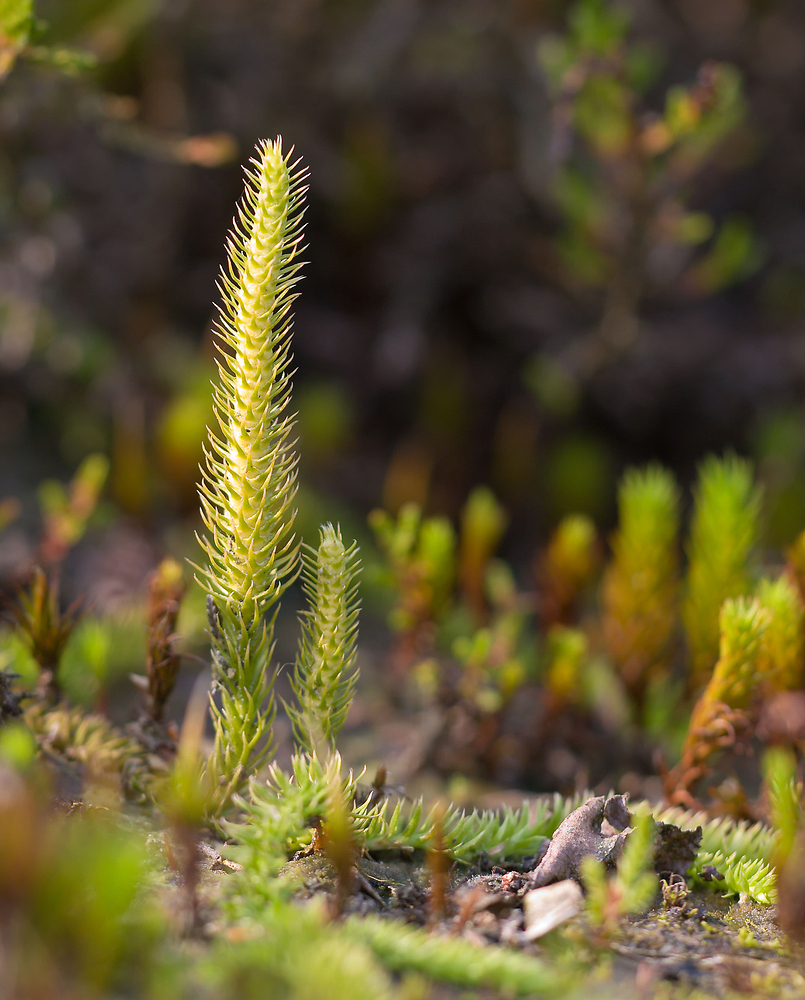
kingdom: Plantae
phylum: Tracheophyta
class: Lycopodiopsida
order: Lycopodiales
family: Lycopodiaceae
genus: Lycopodiella
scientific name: Lycopodiella inundata
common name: Marsh clubmoss
